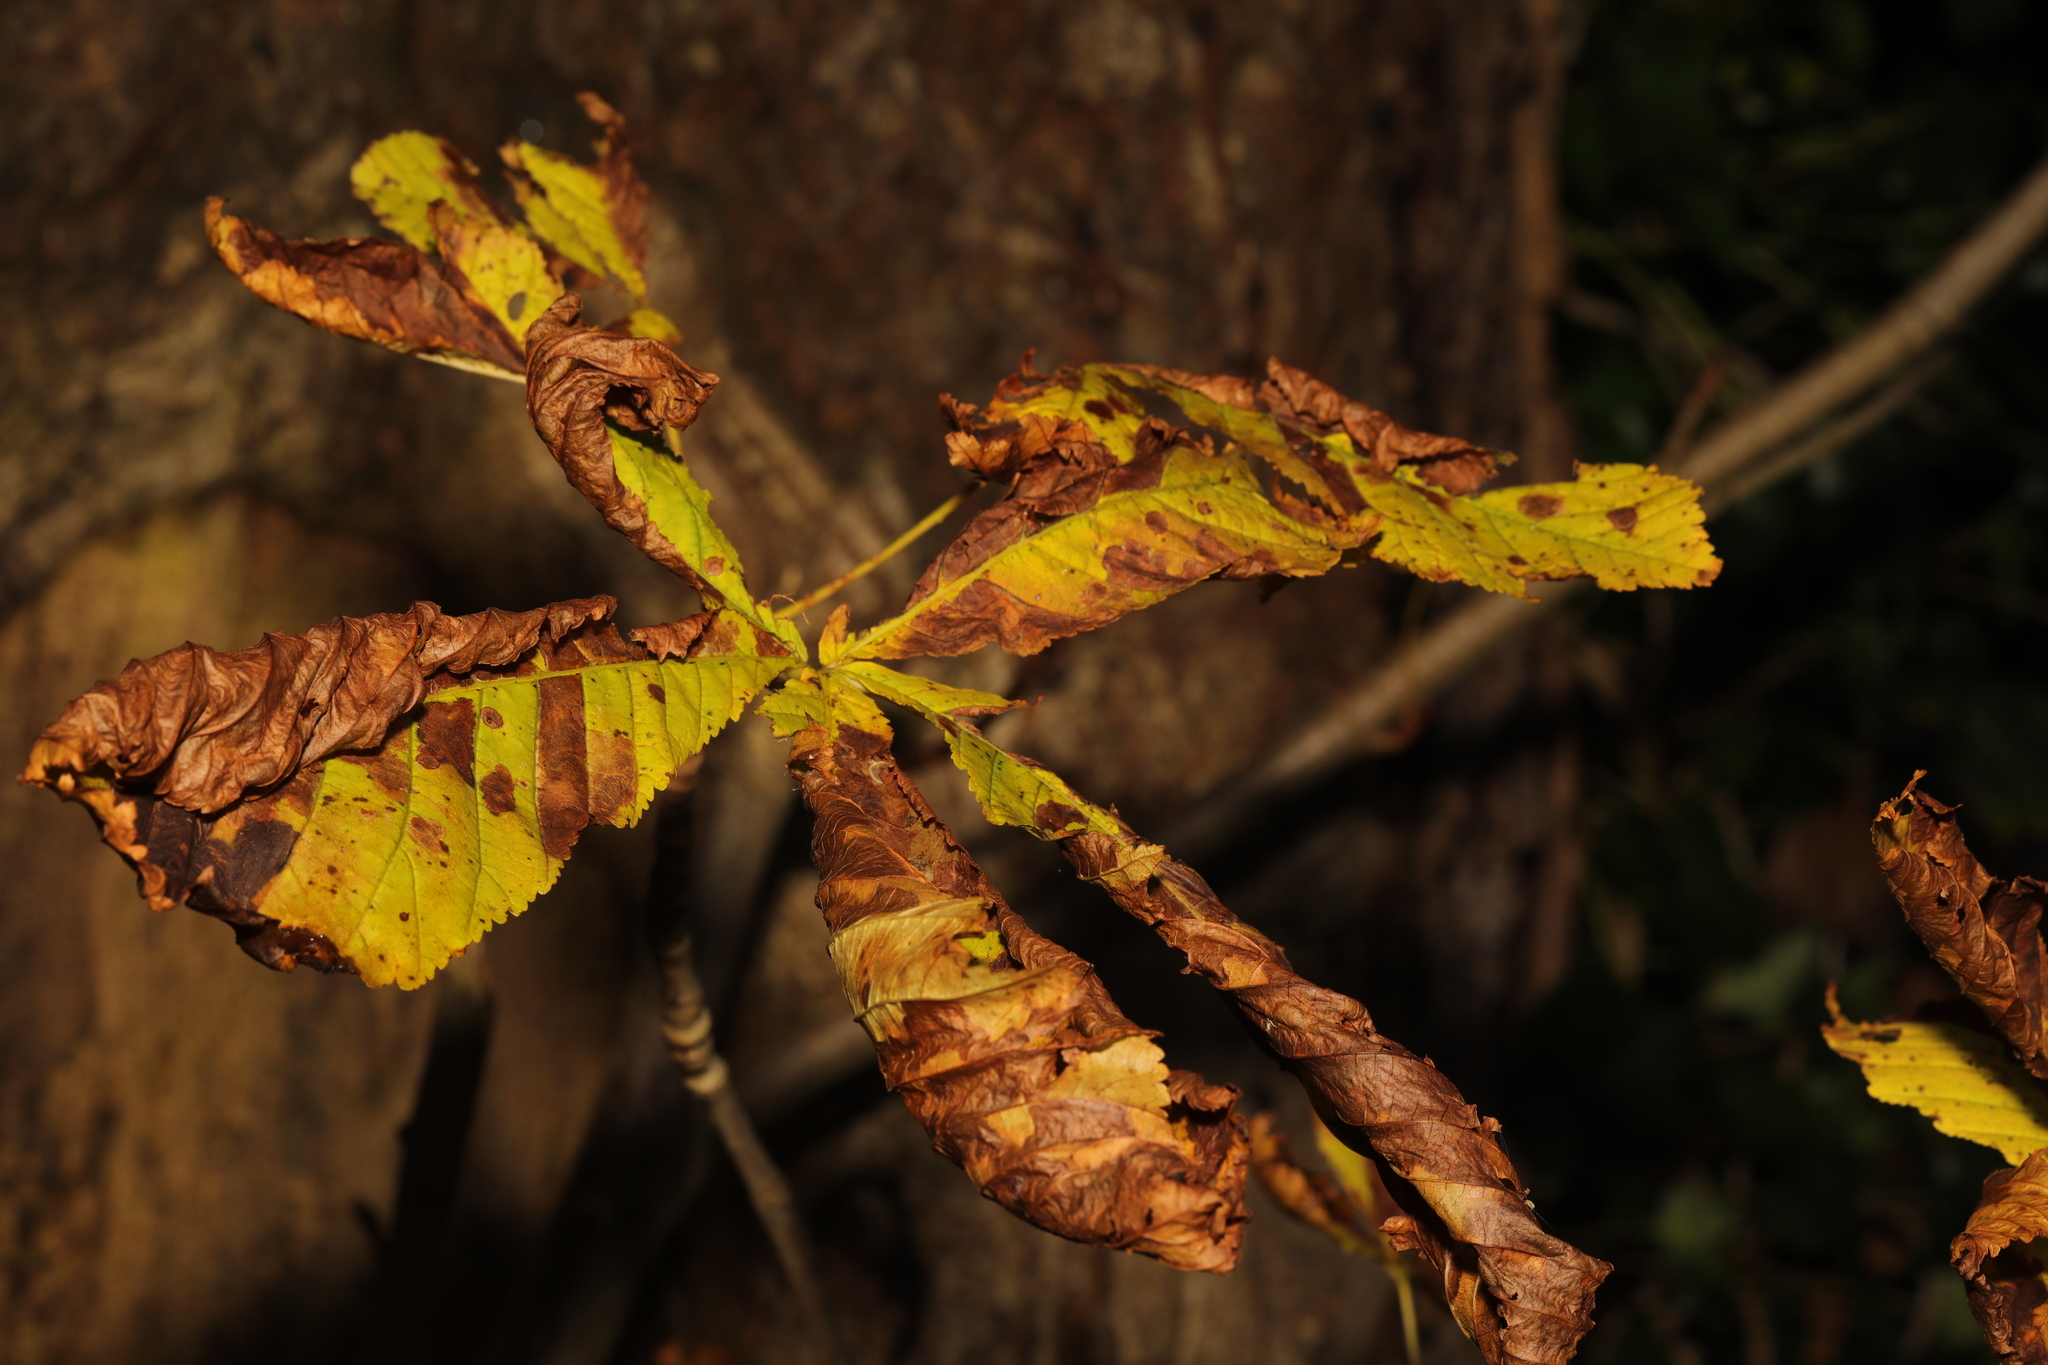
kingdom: Plantae
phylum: Tracheophyta
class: Magnoliopsida
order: Sapindales
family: Sapindaceae
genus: Aesculus
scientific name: Aesculus hippocastanum
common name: Horse-chestnut
